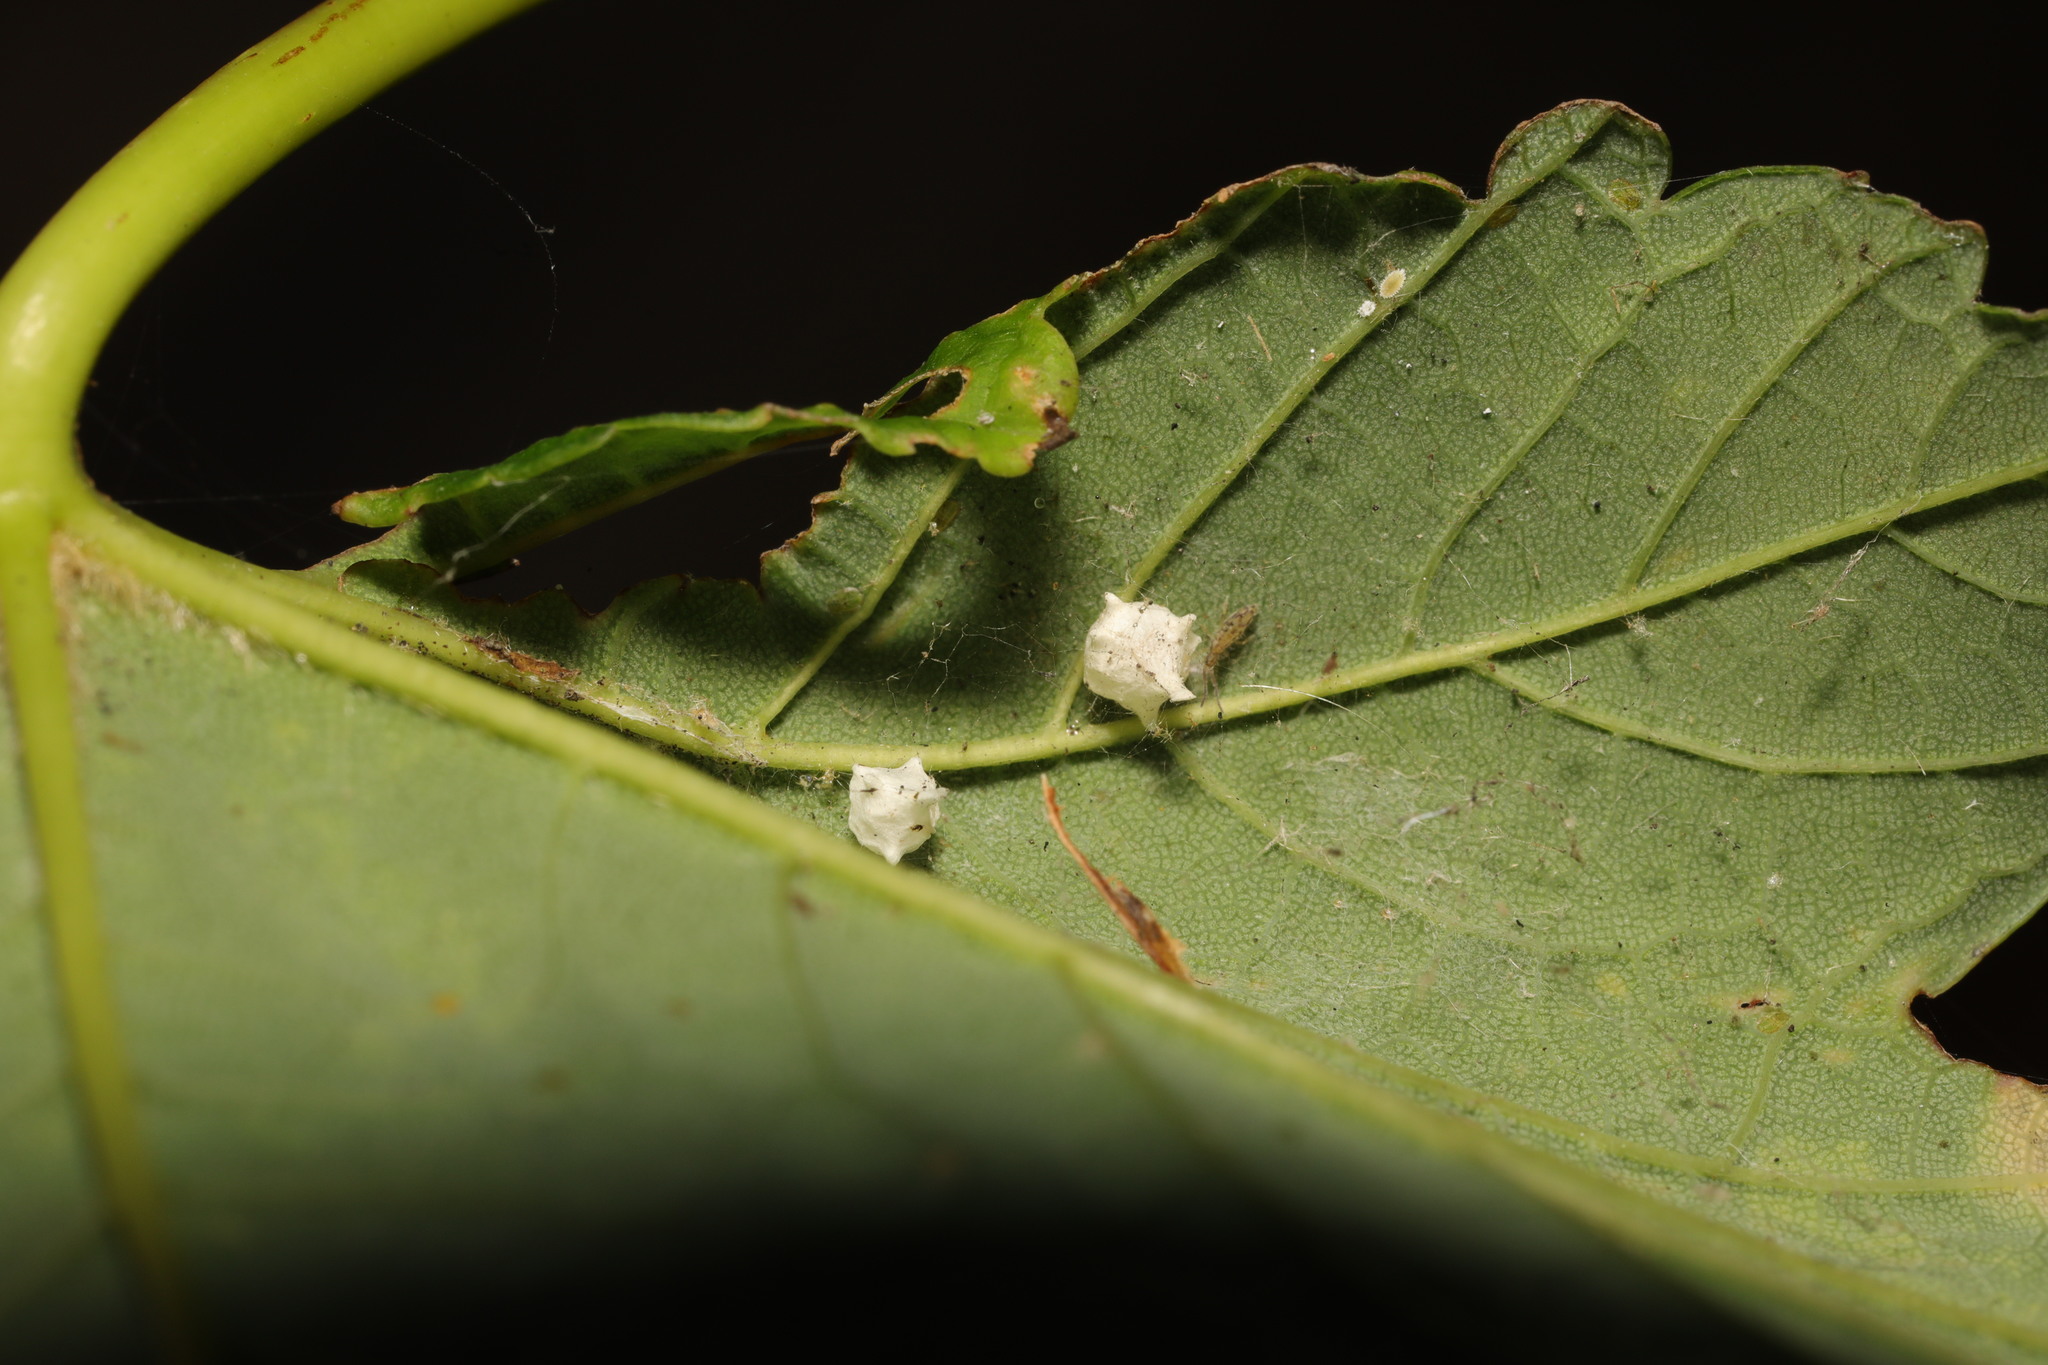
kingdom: Animalia
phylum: Arthropoda
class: Arachnida
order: Araneae
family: Theridiidae
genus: Paidiscura
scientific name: Paidiscura pallens
